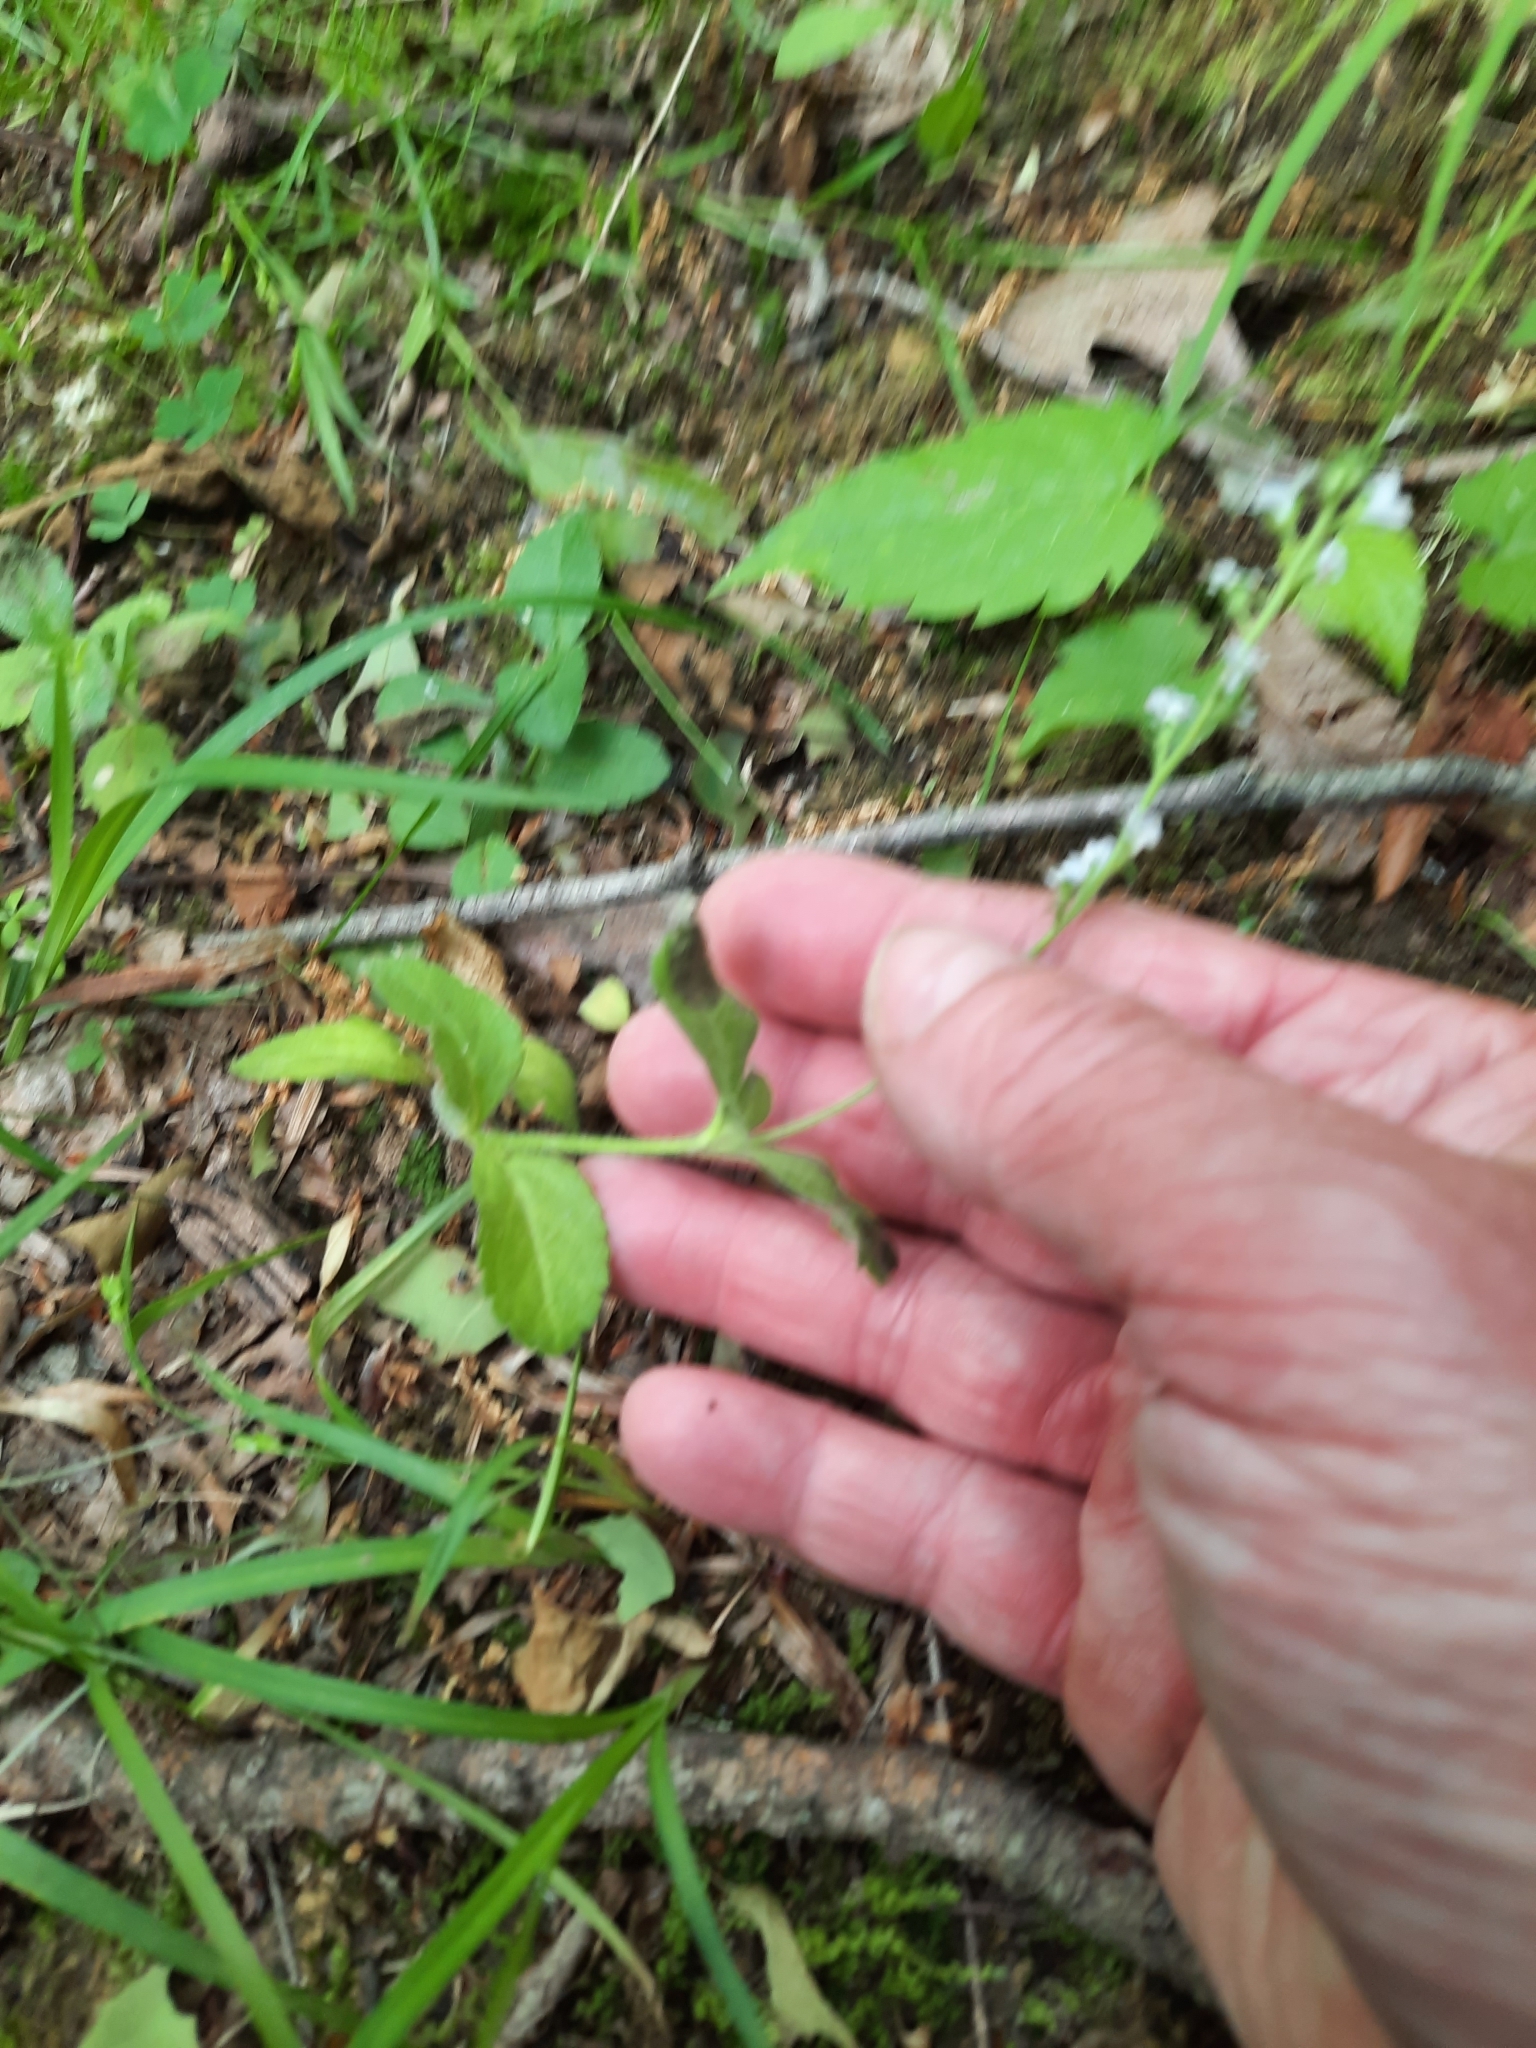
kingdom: Plantae
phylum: Tracheophyta
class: Magnoliopsida
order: Lamiales
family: Plantaginaceae
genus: Veronica
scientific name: Veronica officinalis
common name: Common speedwell
